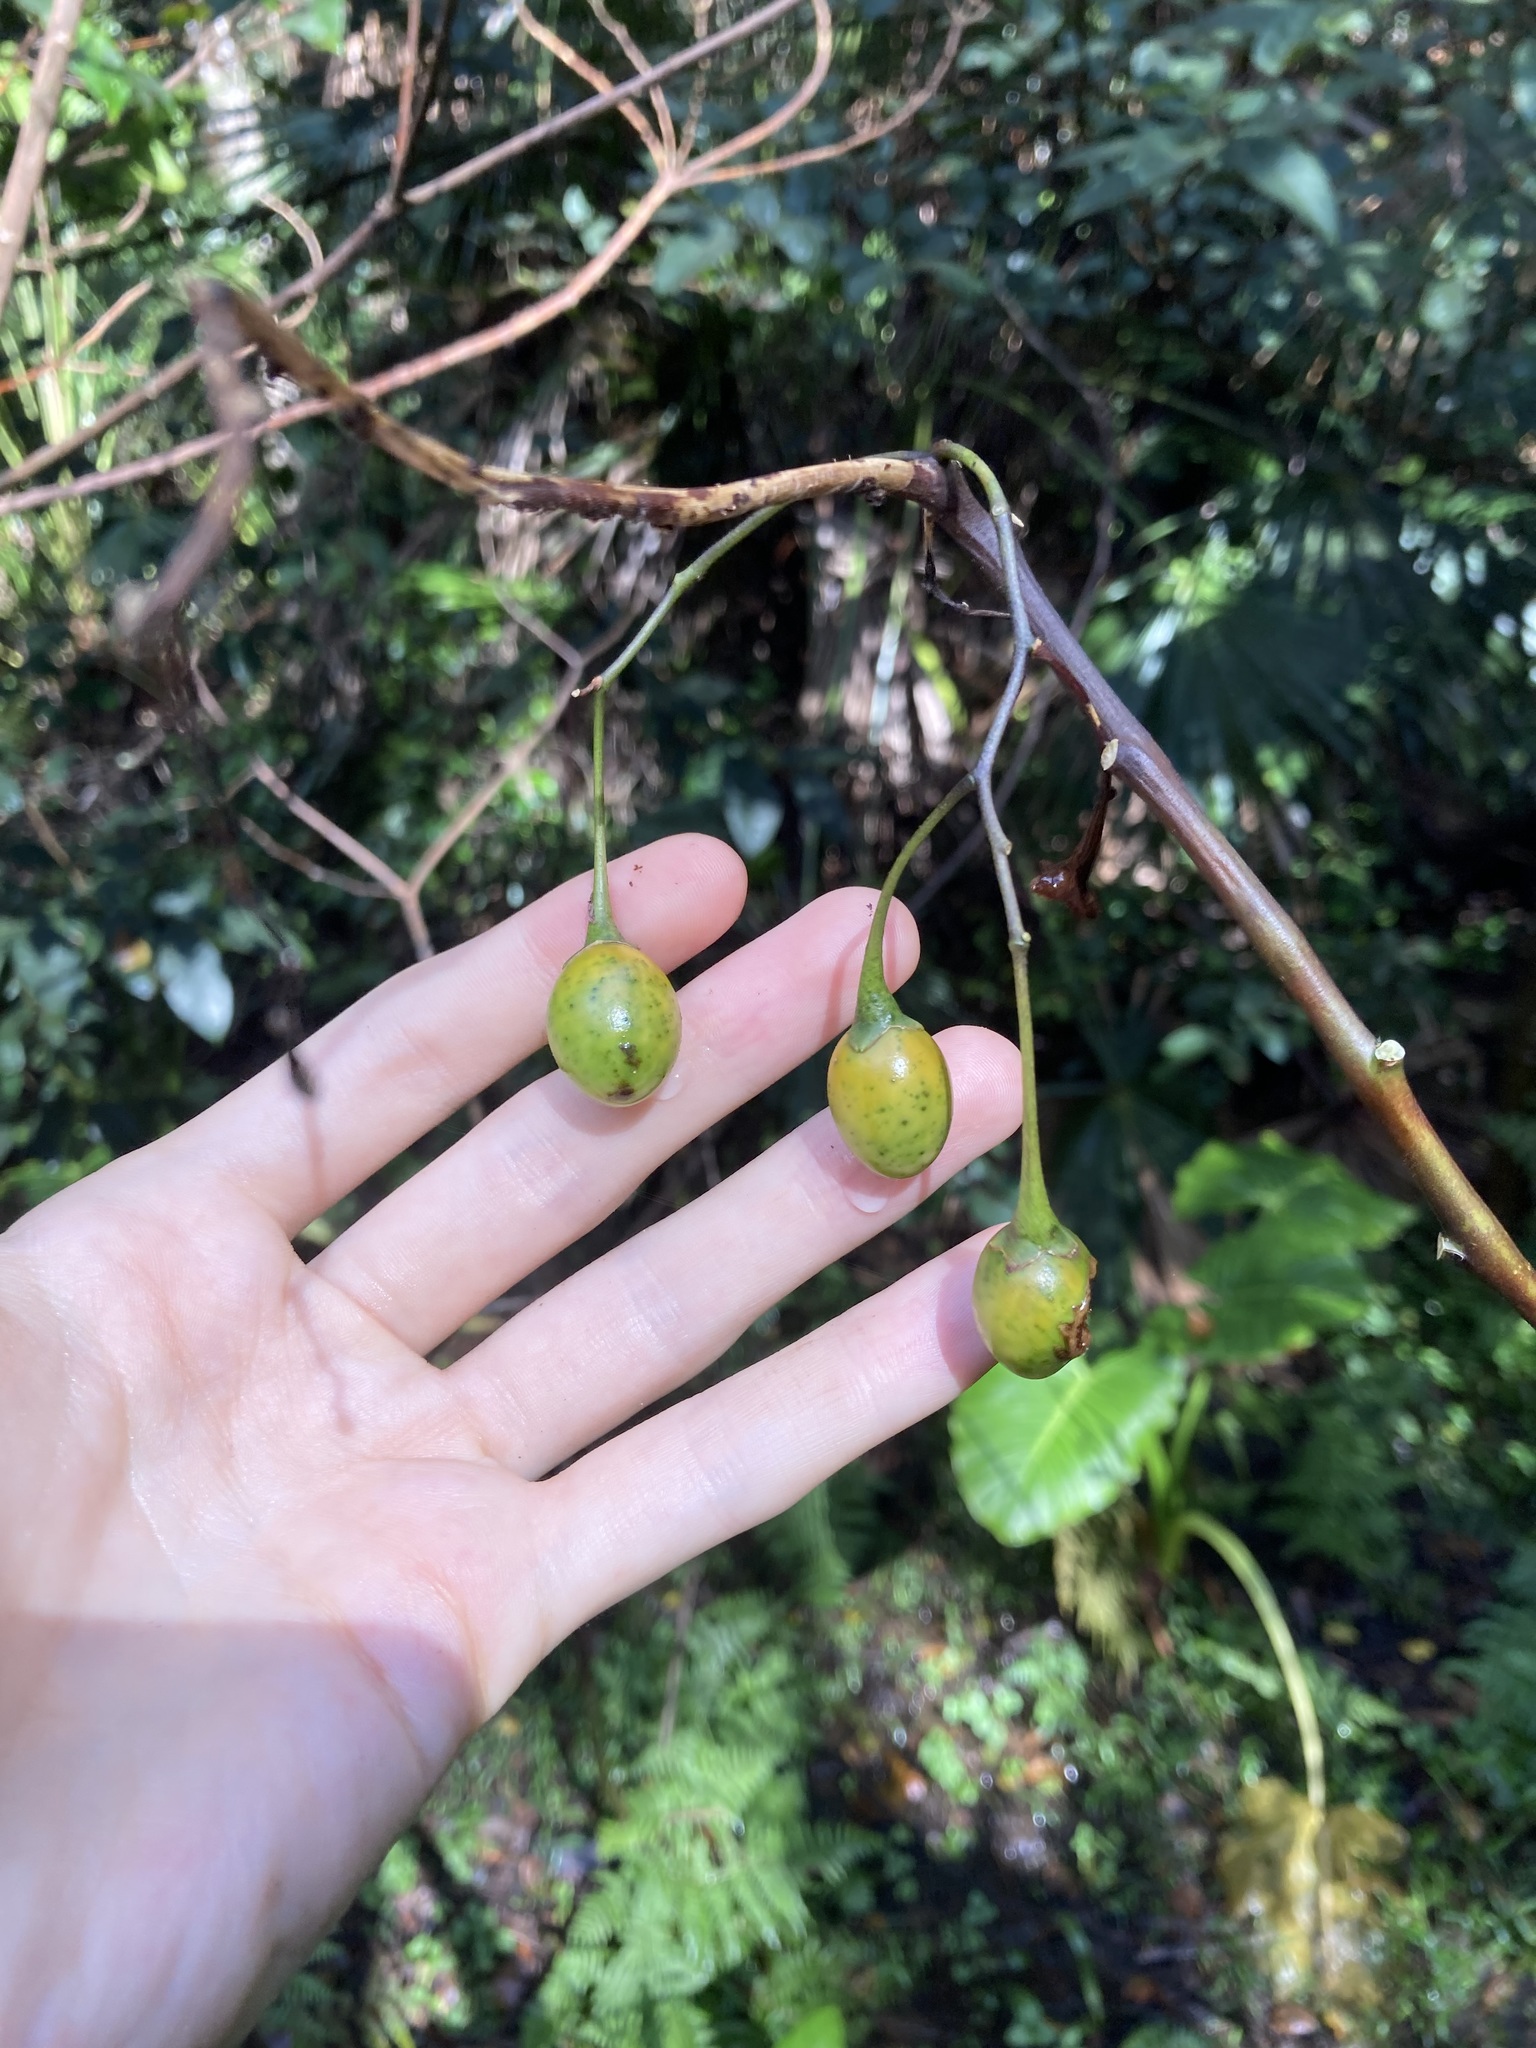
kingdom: Plantae
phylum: Tracheophyta
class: Magnoliopsida
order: Solanales
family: Solanaceae
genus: Solanum
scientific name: Solanum aviculare
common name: New zealand nightshade
